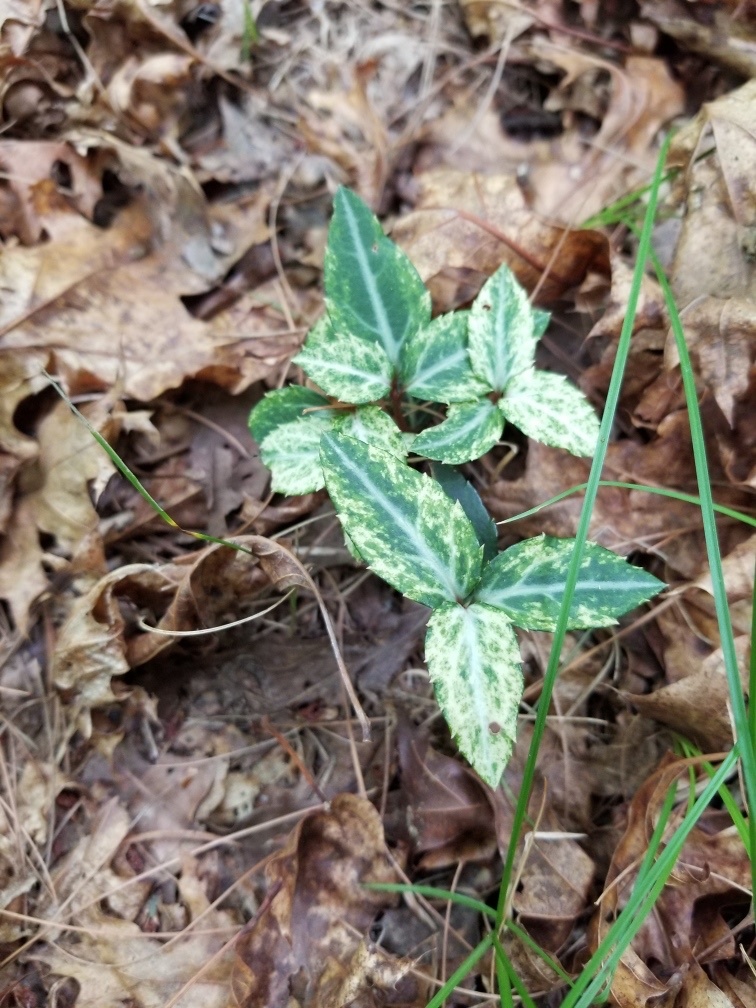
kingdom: Plantae
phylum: Tracheophyta
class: Magnoliopsida
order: Ericales
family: Ericaceae
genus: Chimaphila
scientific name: Chimaphila maculata
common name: Spotted pipsissewa
